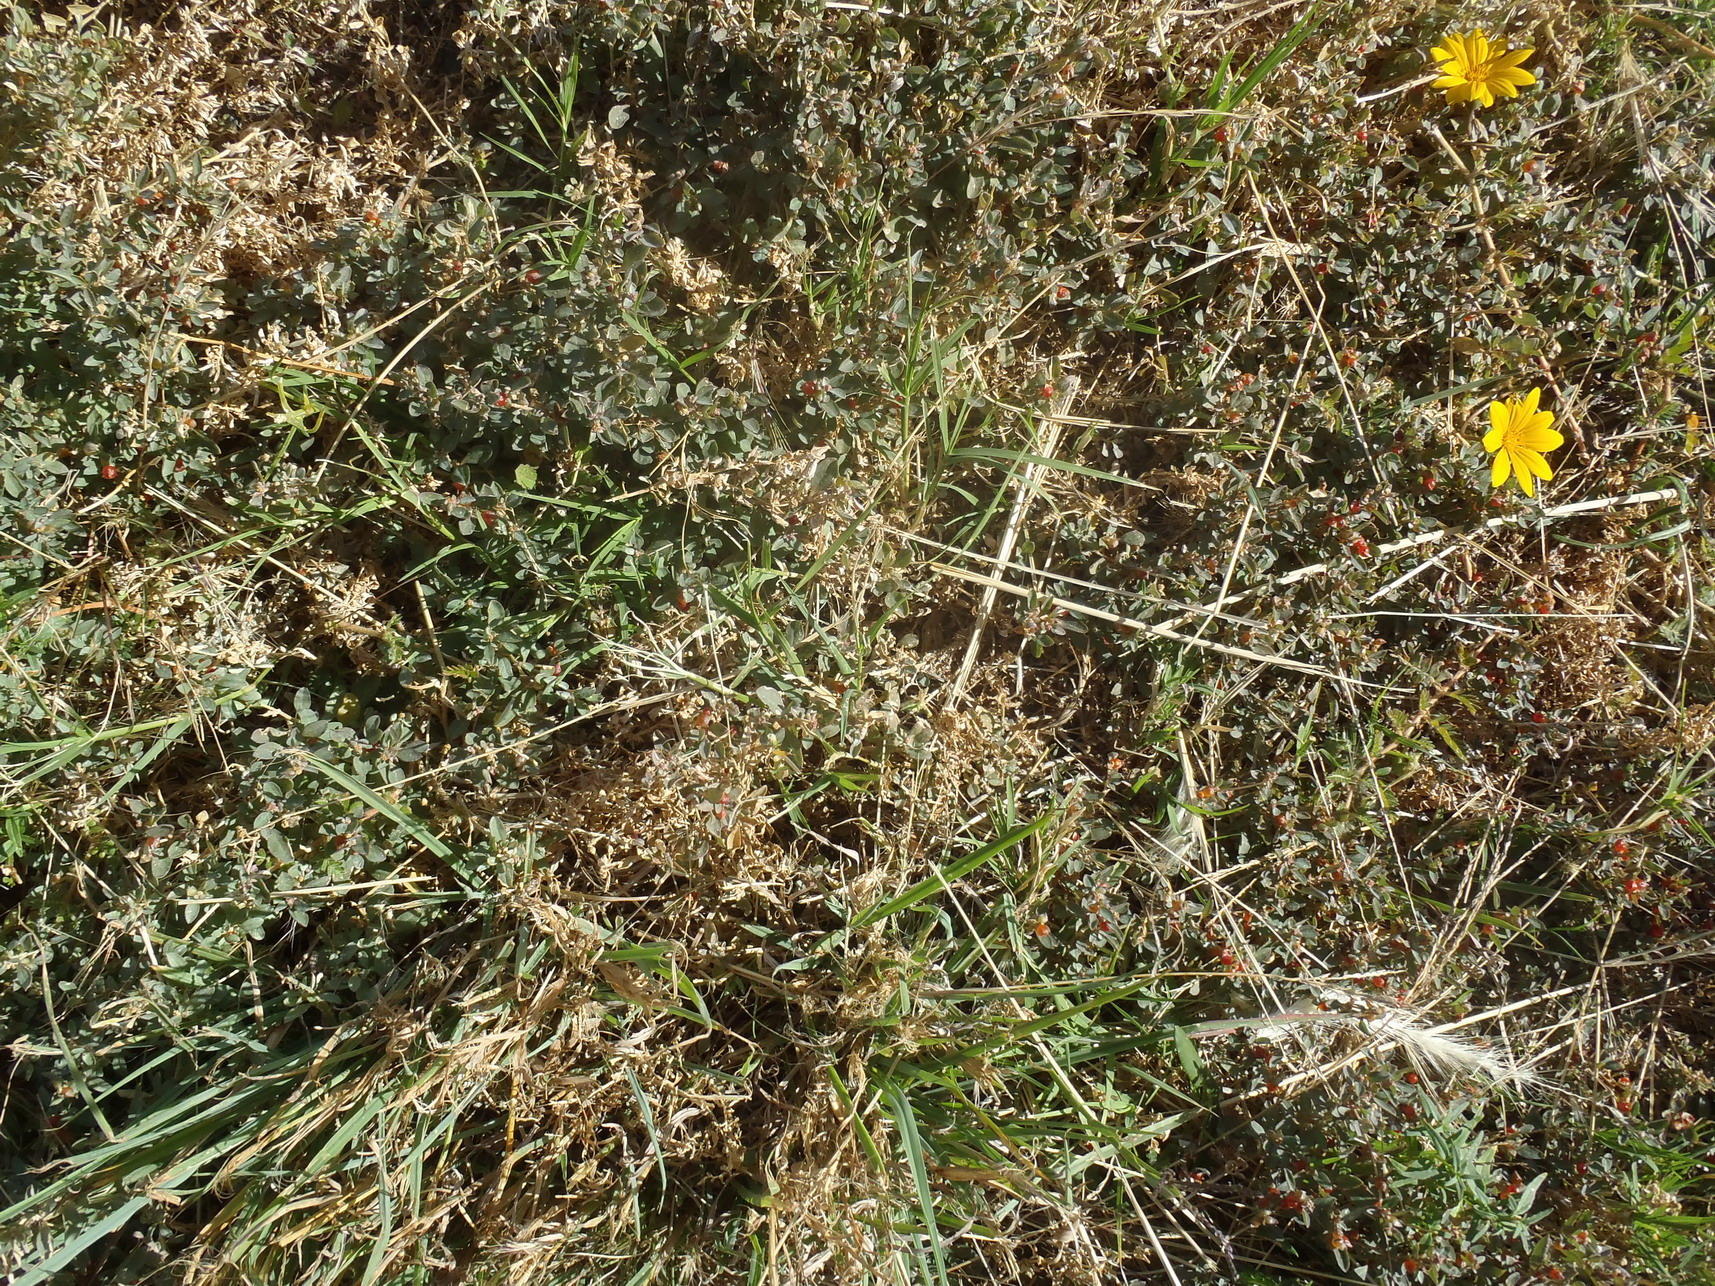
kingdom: Plantae
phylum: Tracheophyta
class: Magnoliopsida
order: Caryophyllales
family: Amaranthaceae
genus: Atriplex
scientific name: Atriplex semibaccata
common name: Australian saltbush
